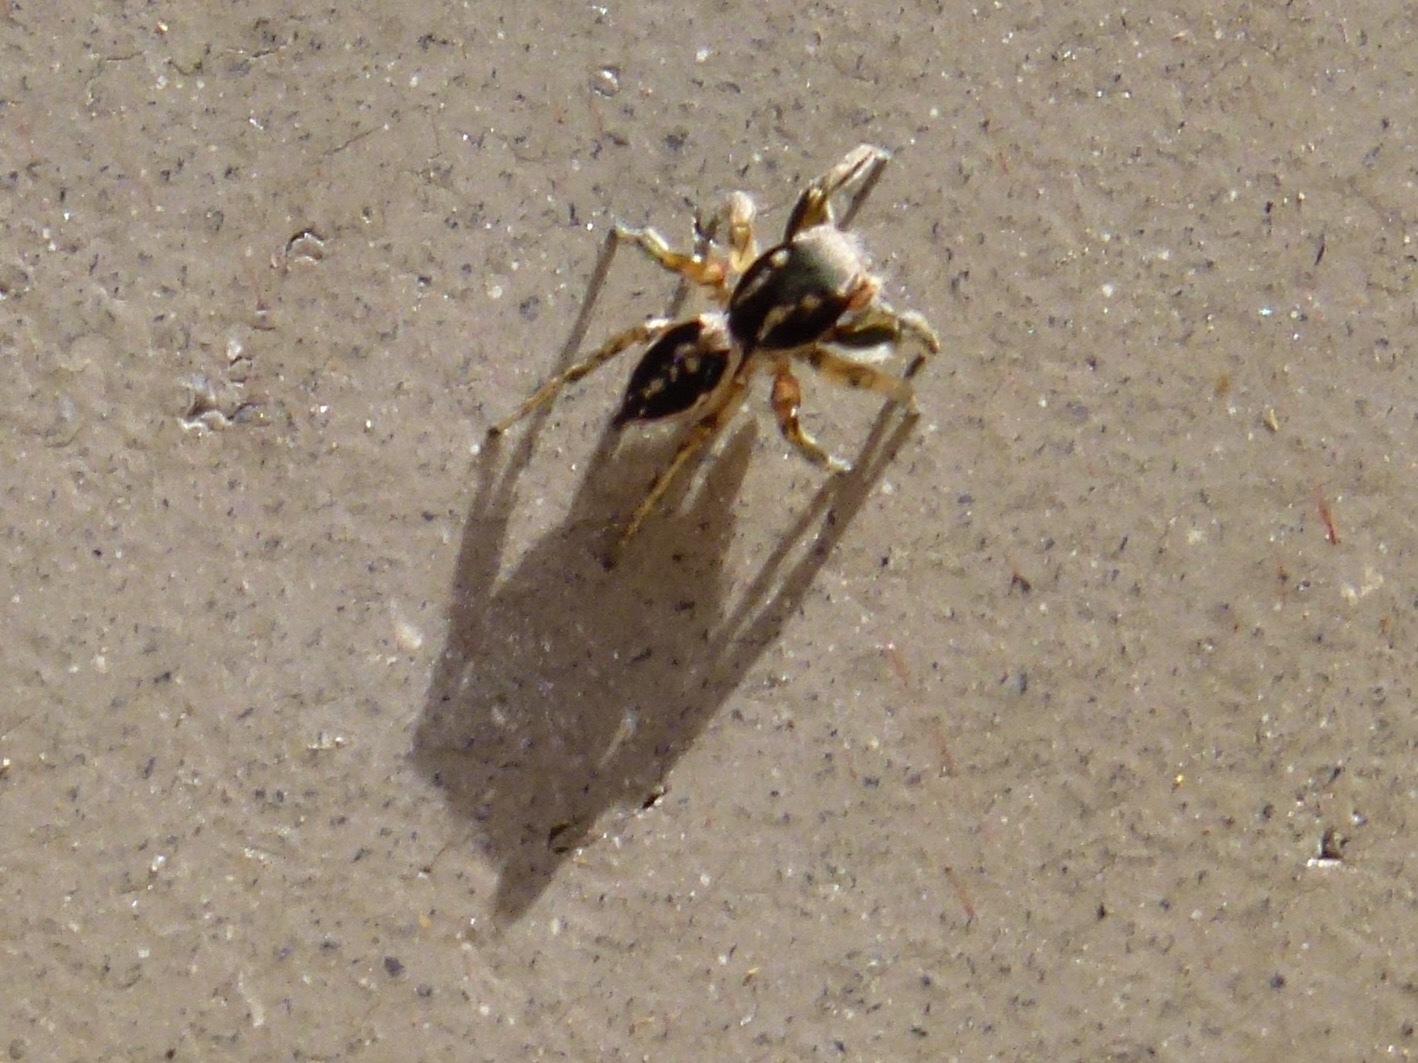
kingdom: Animalia
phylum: Arthropoda
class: Arachnida
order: Araneae
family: Salticidae
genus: Habronattus
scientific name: Habronattus pyrrithrix
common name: Jumping spider
